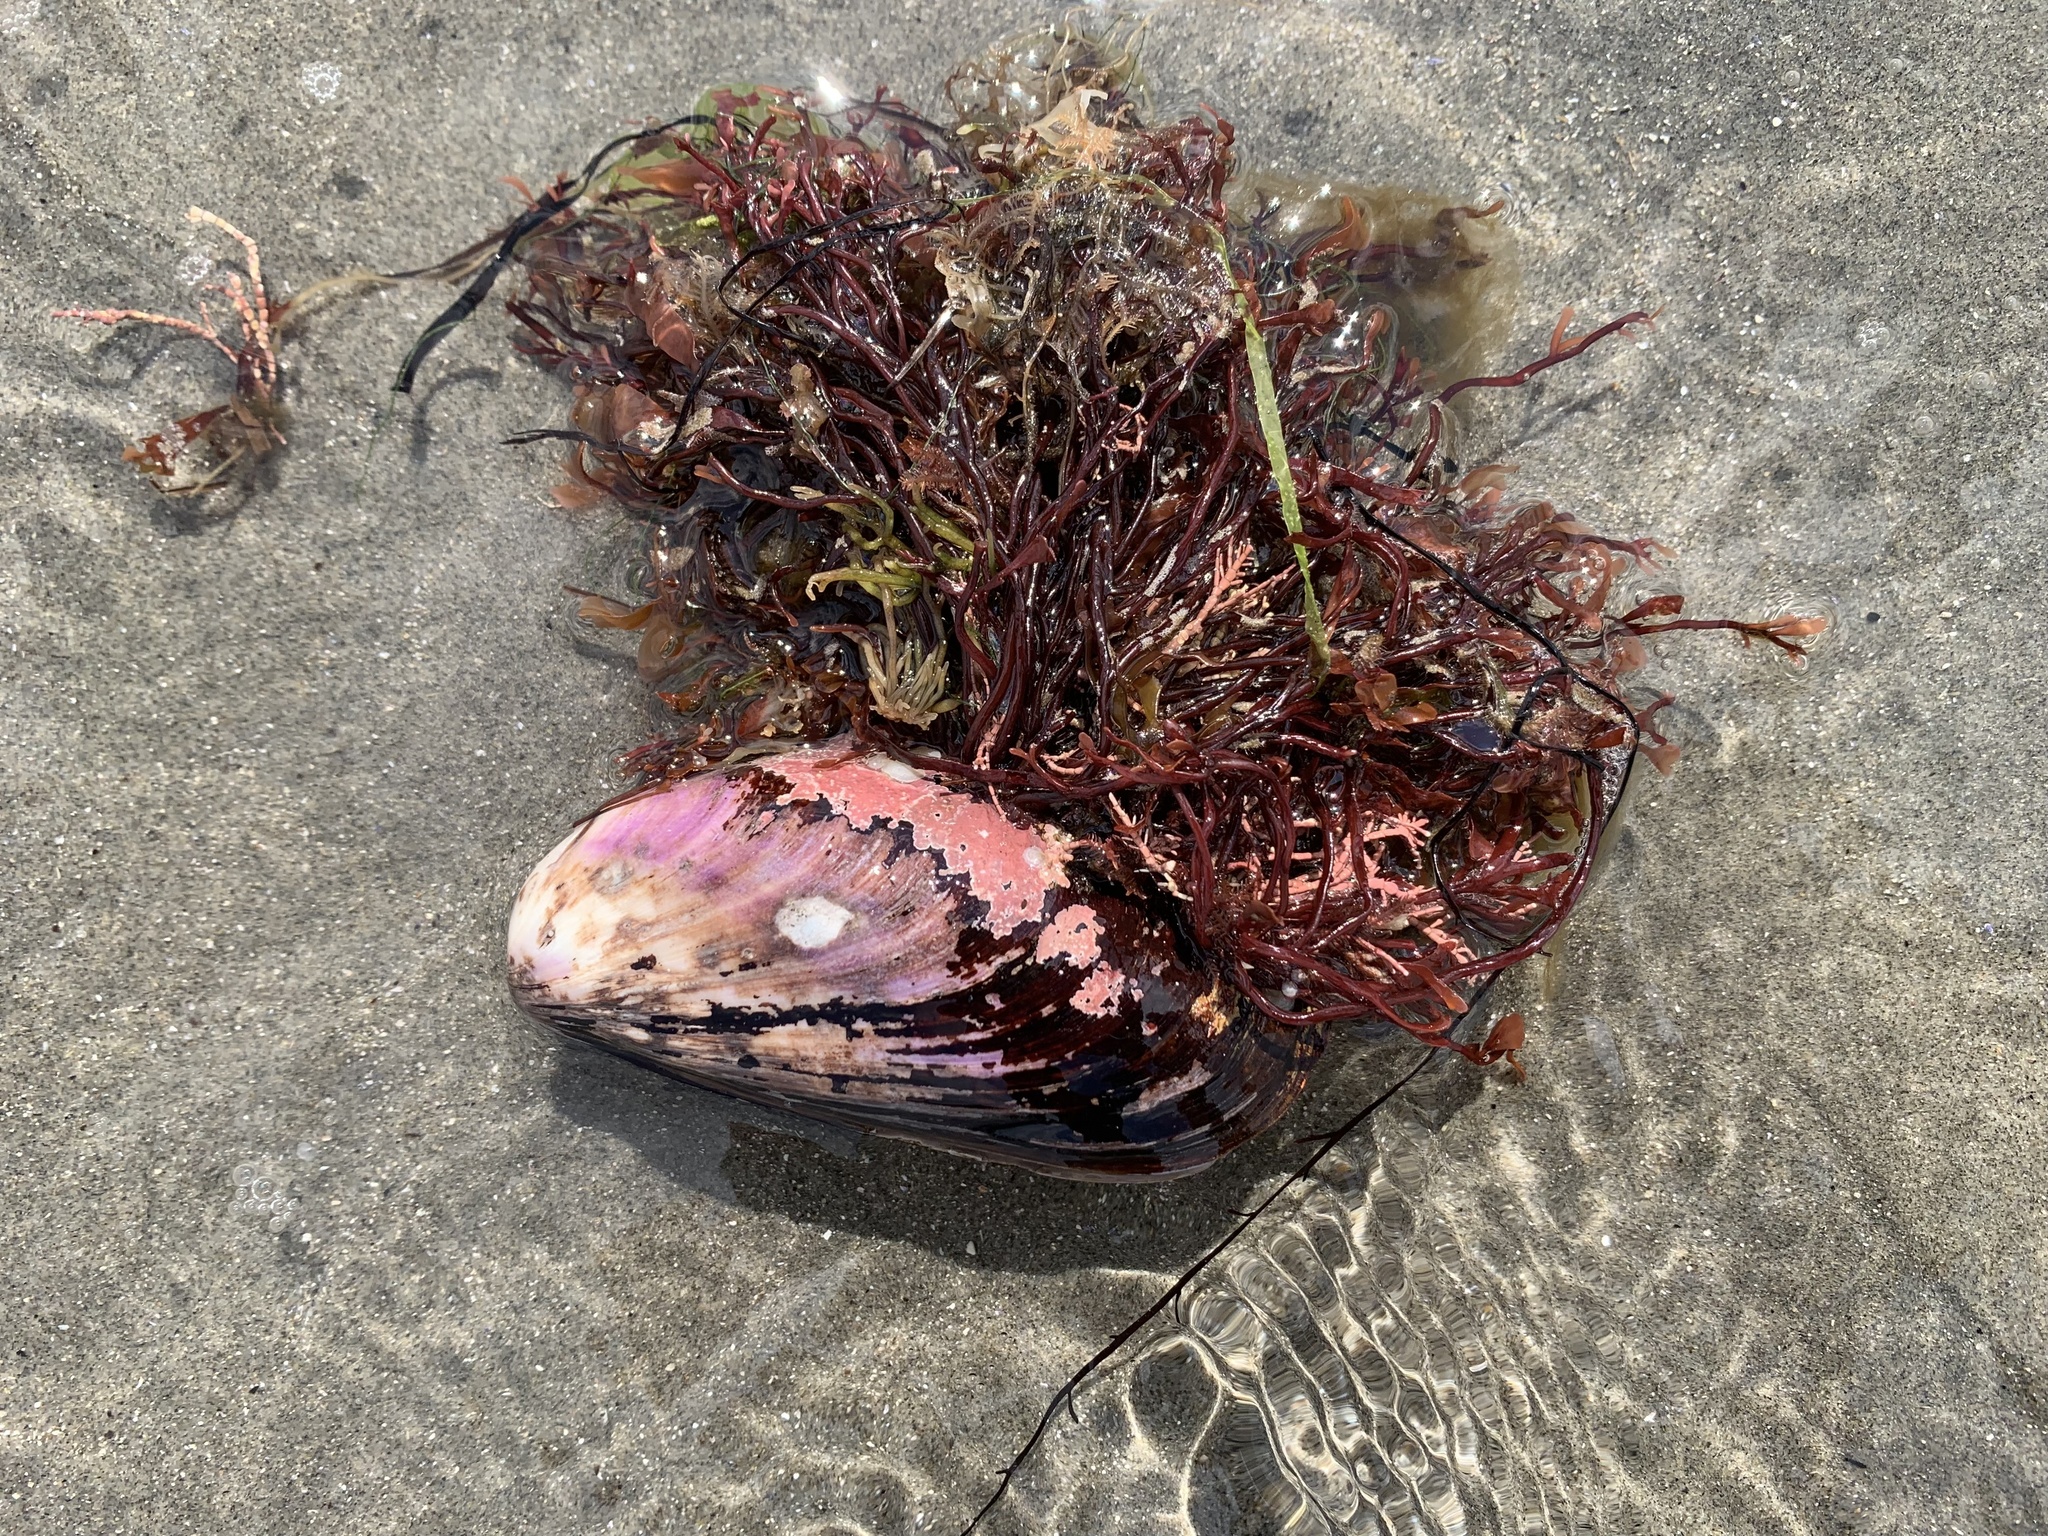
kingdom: Animalia
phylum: Mollusca
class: Bivalvia
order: Mytilida
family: Mytilidae
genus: Modiolus
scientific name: Modiolus modiolus
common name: Horse-mussel
